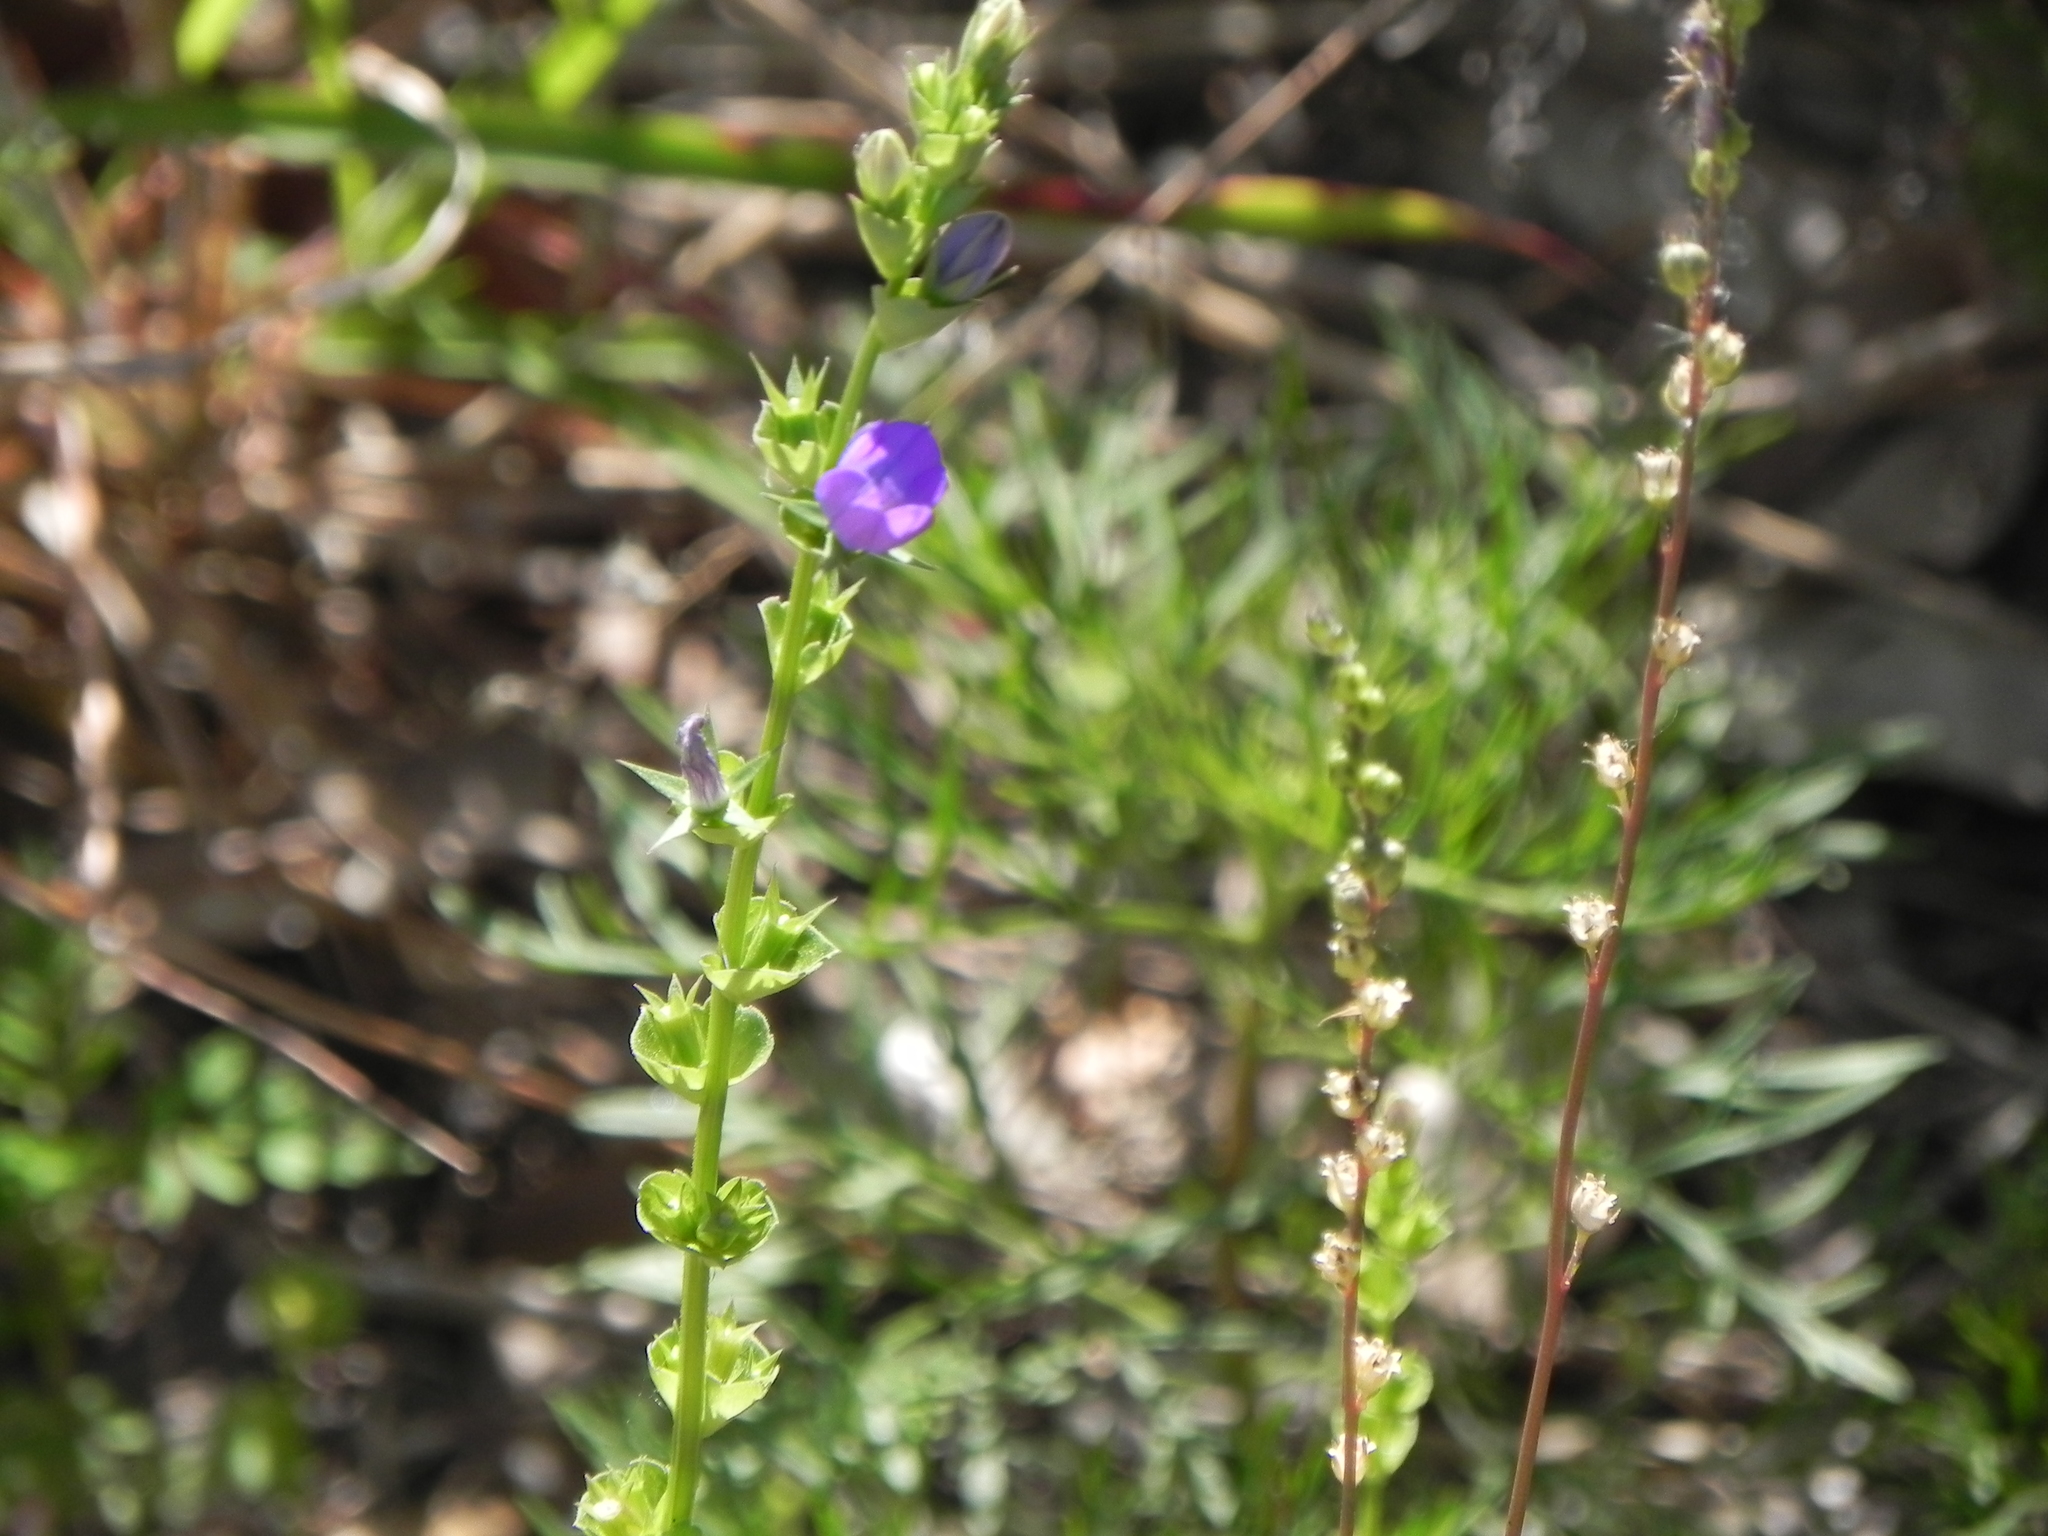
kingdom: Plantae
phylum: Tracheophyta
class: Magnoliopsida
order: Asterales
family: Campanulaceae
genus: Triodanis
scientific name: Triodanis perfoliata
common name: Clasping venus' looking-glass
